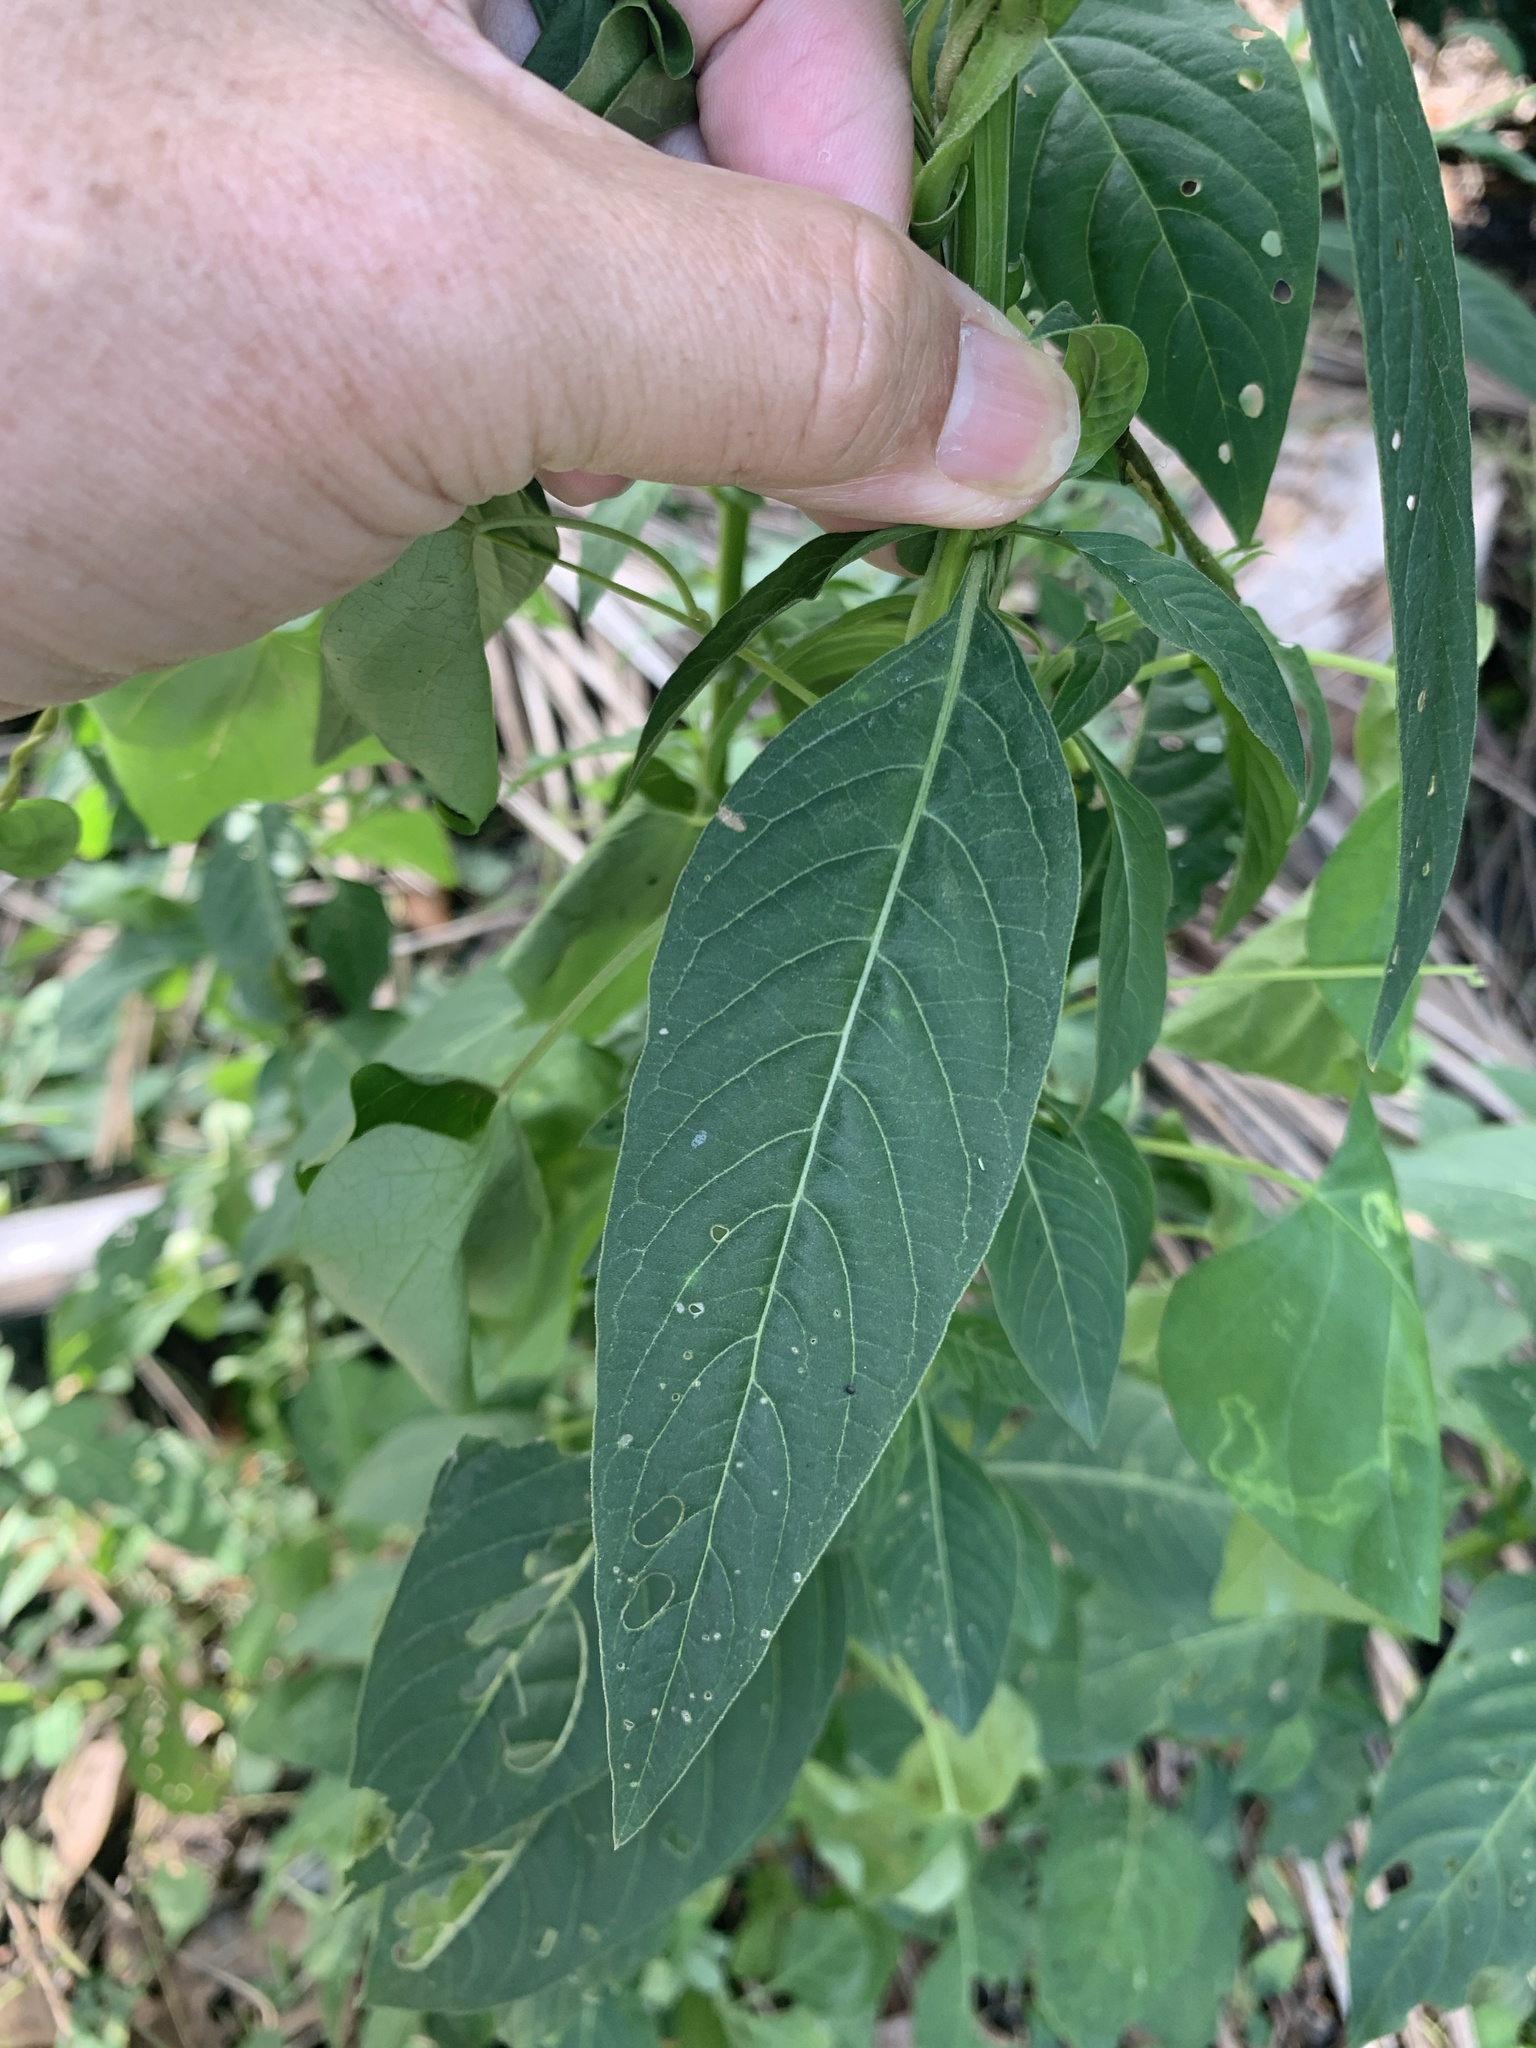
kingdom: Plantae
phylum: Tracheophyta
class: Magnoliopsida
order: Caryophyllales
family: Amaranthaceae
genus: Celosia
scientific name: Celosia argentea
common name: Feather cockscomb
